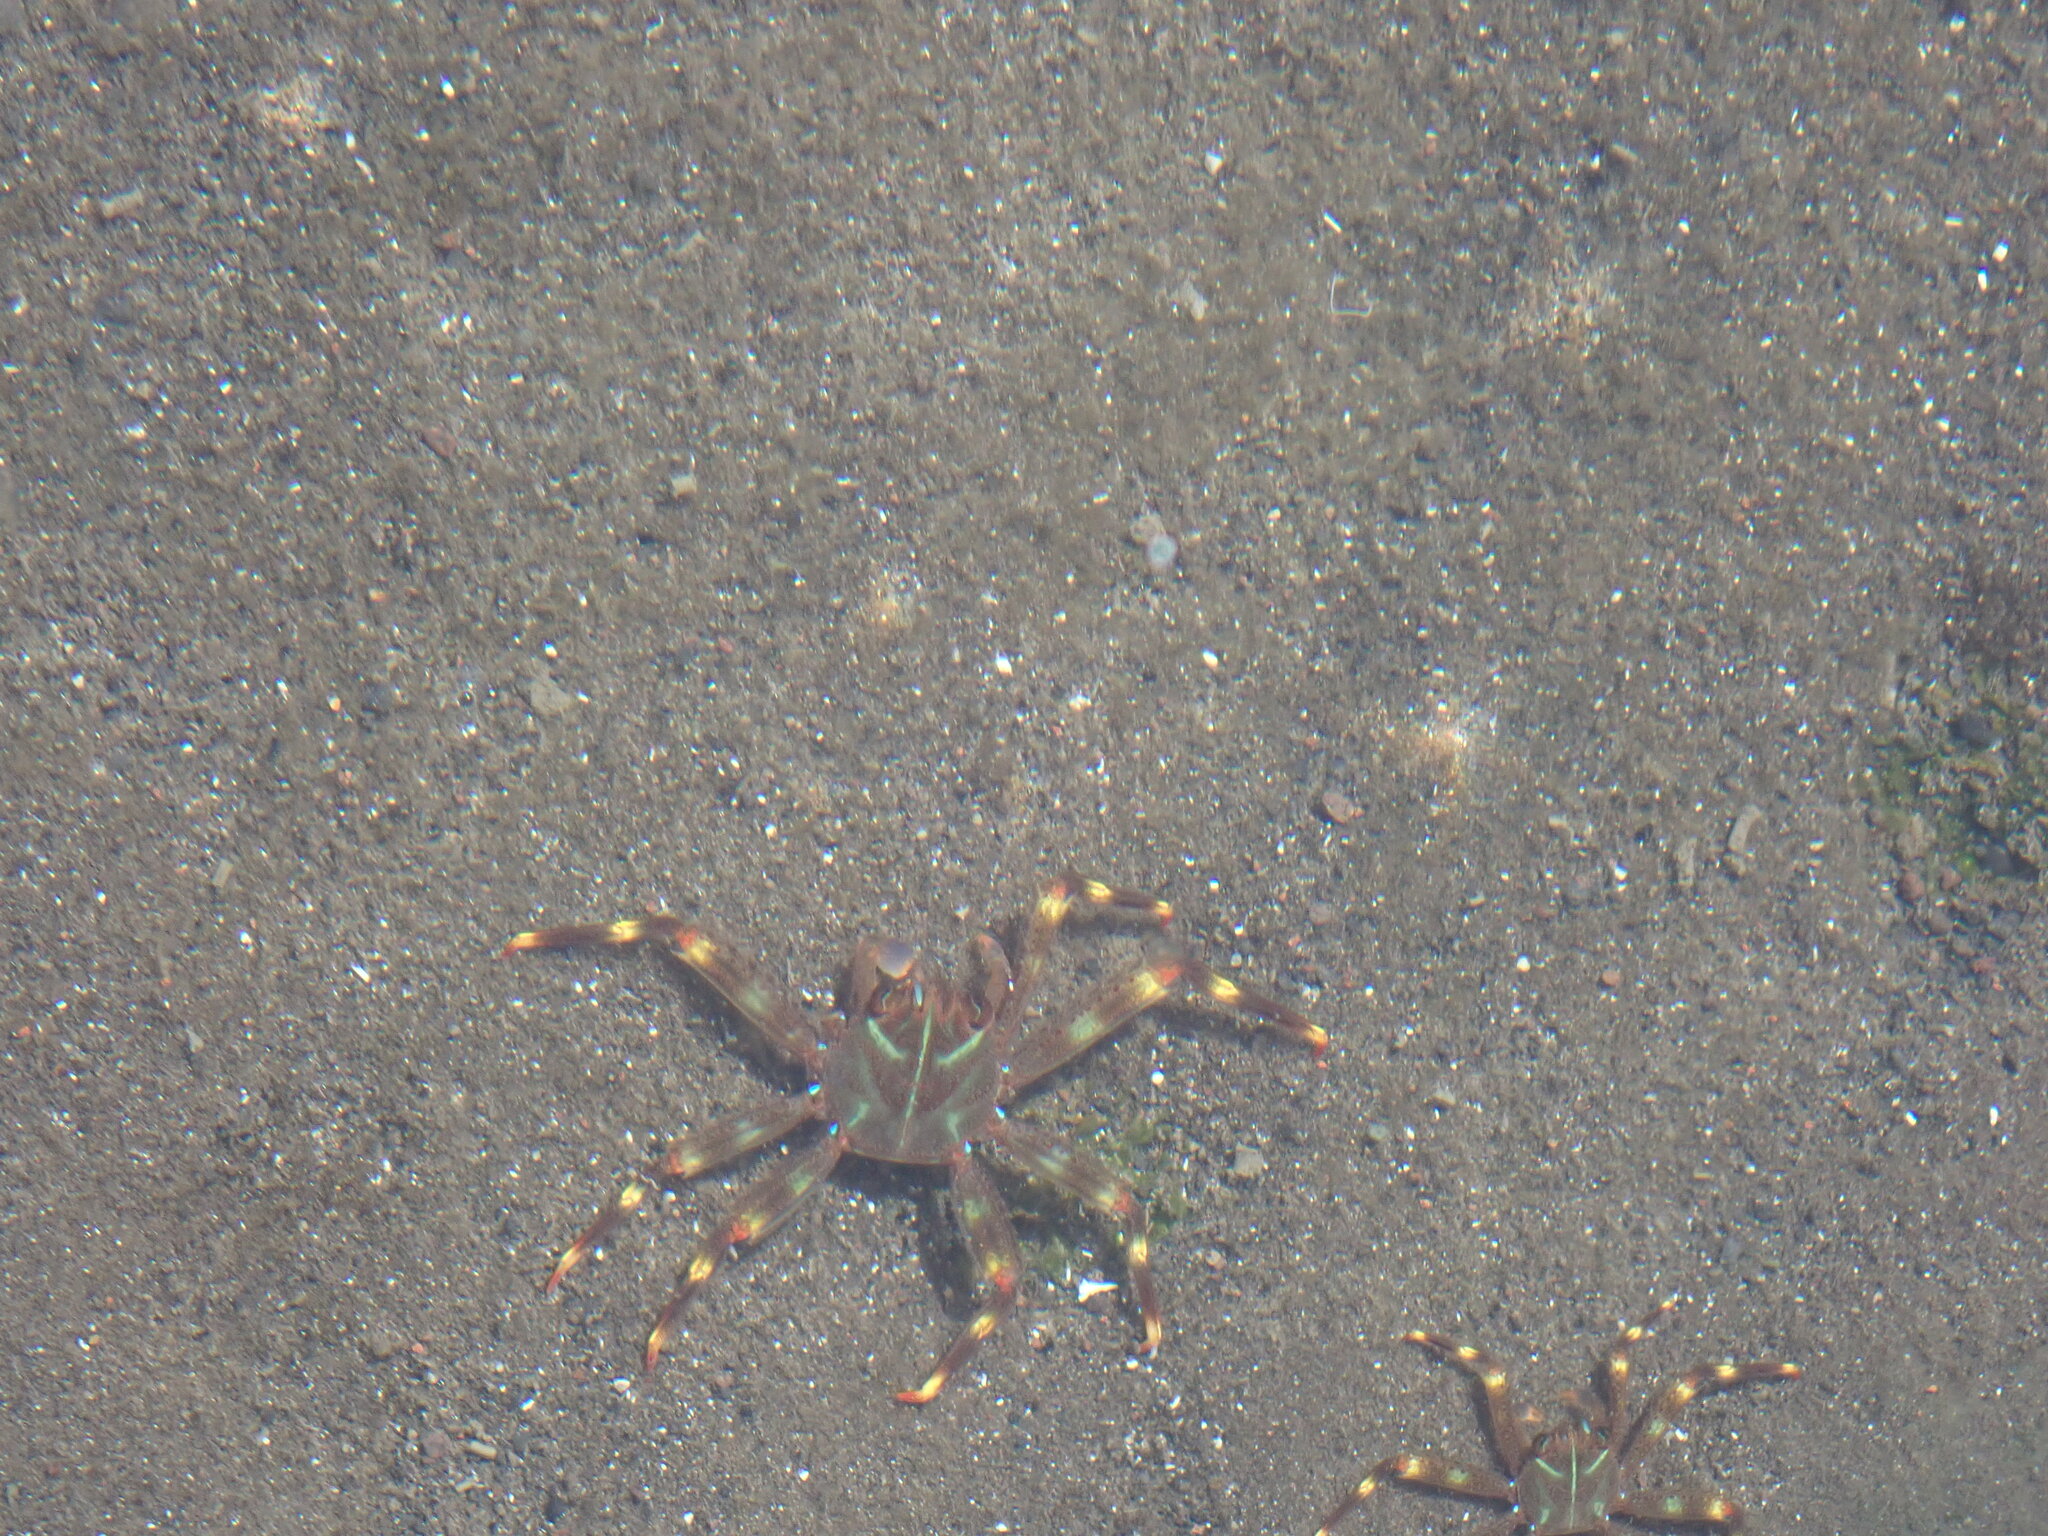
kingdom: Animalia
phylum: Arthropoda
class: Malacostraca
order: Decapoda
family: Percnidae
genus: Percnon
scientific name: Percnon gibbesi
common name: Nimble spray crab
